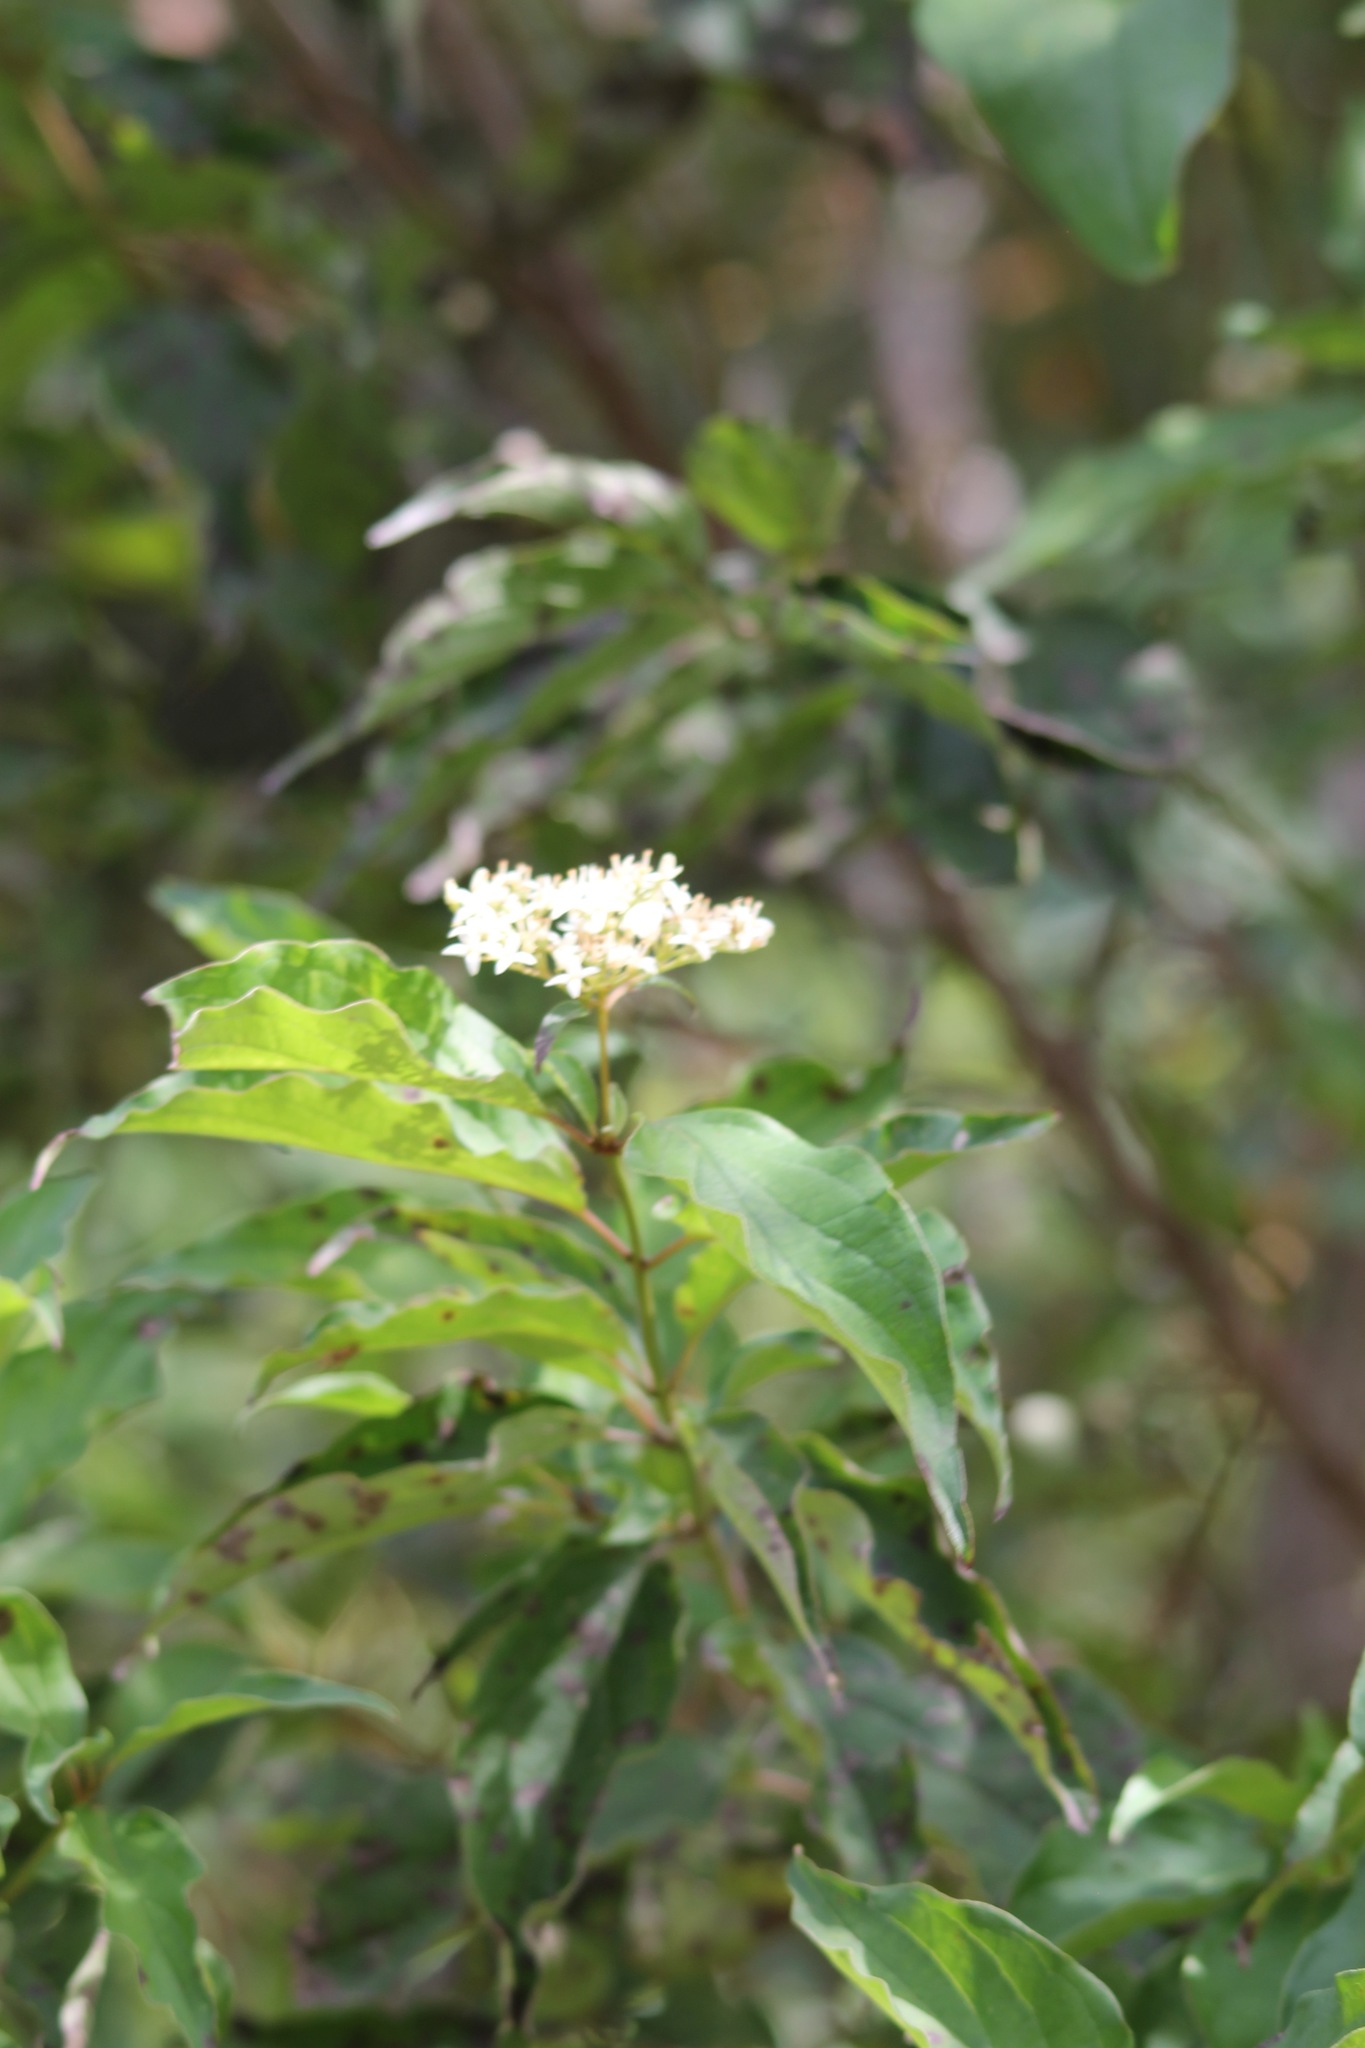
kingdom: Plantae
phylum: Tracheophyta
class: Magnoliopsida
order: Cornales
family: Cornaceae
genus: Cornus
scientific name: Cornus drummondii
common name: Rough-leaf dogwood
